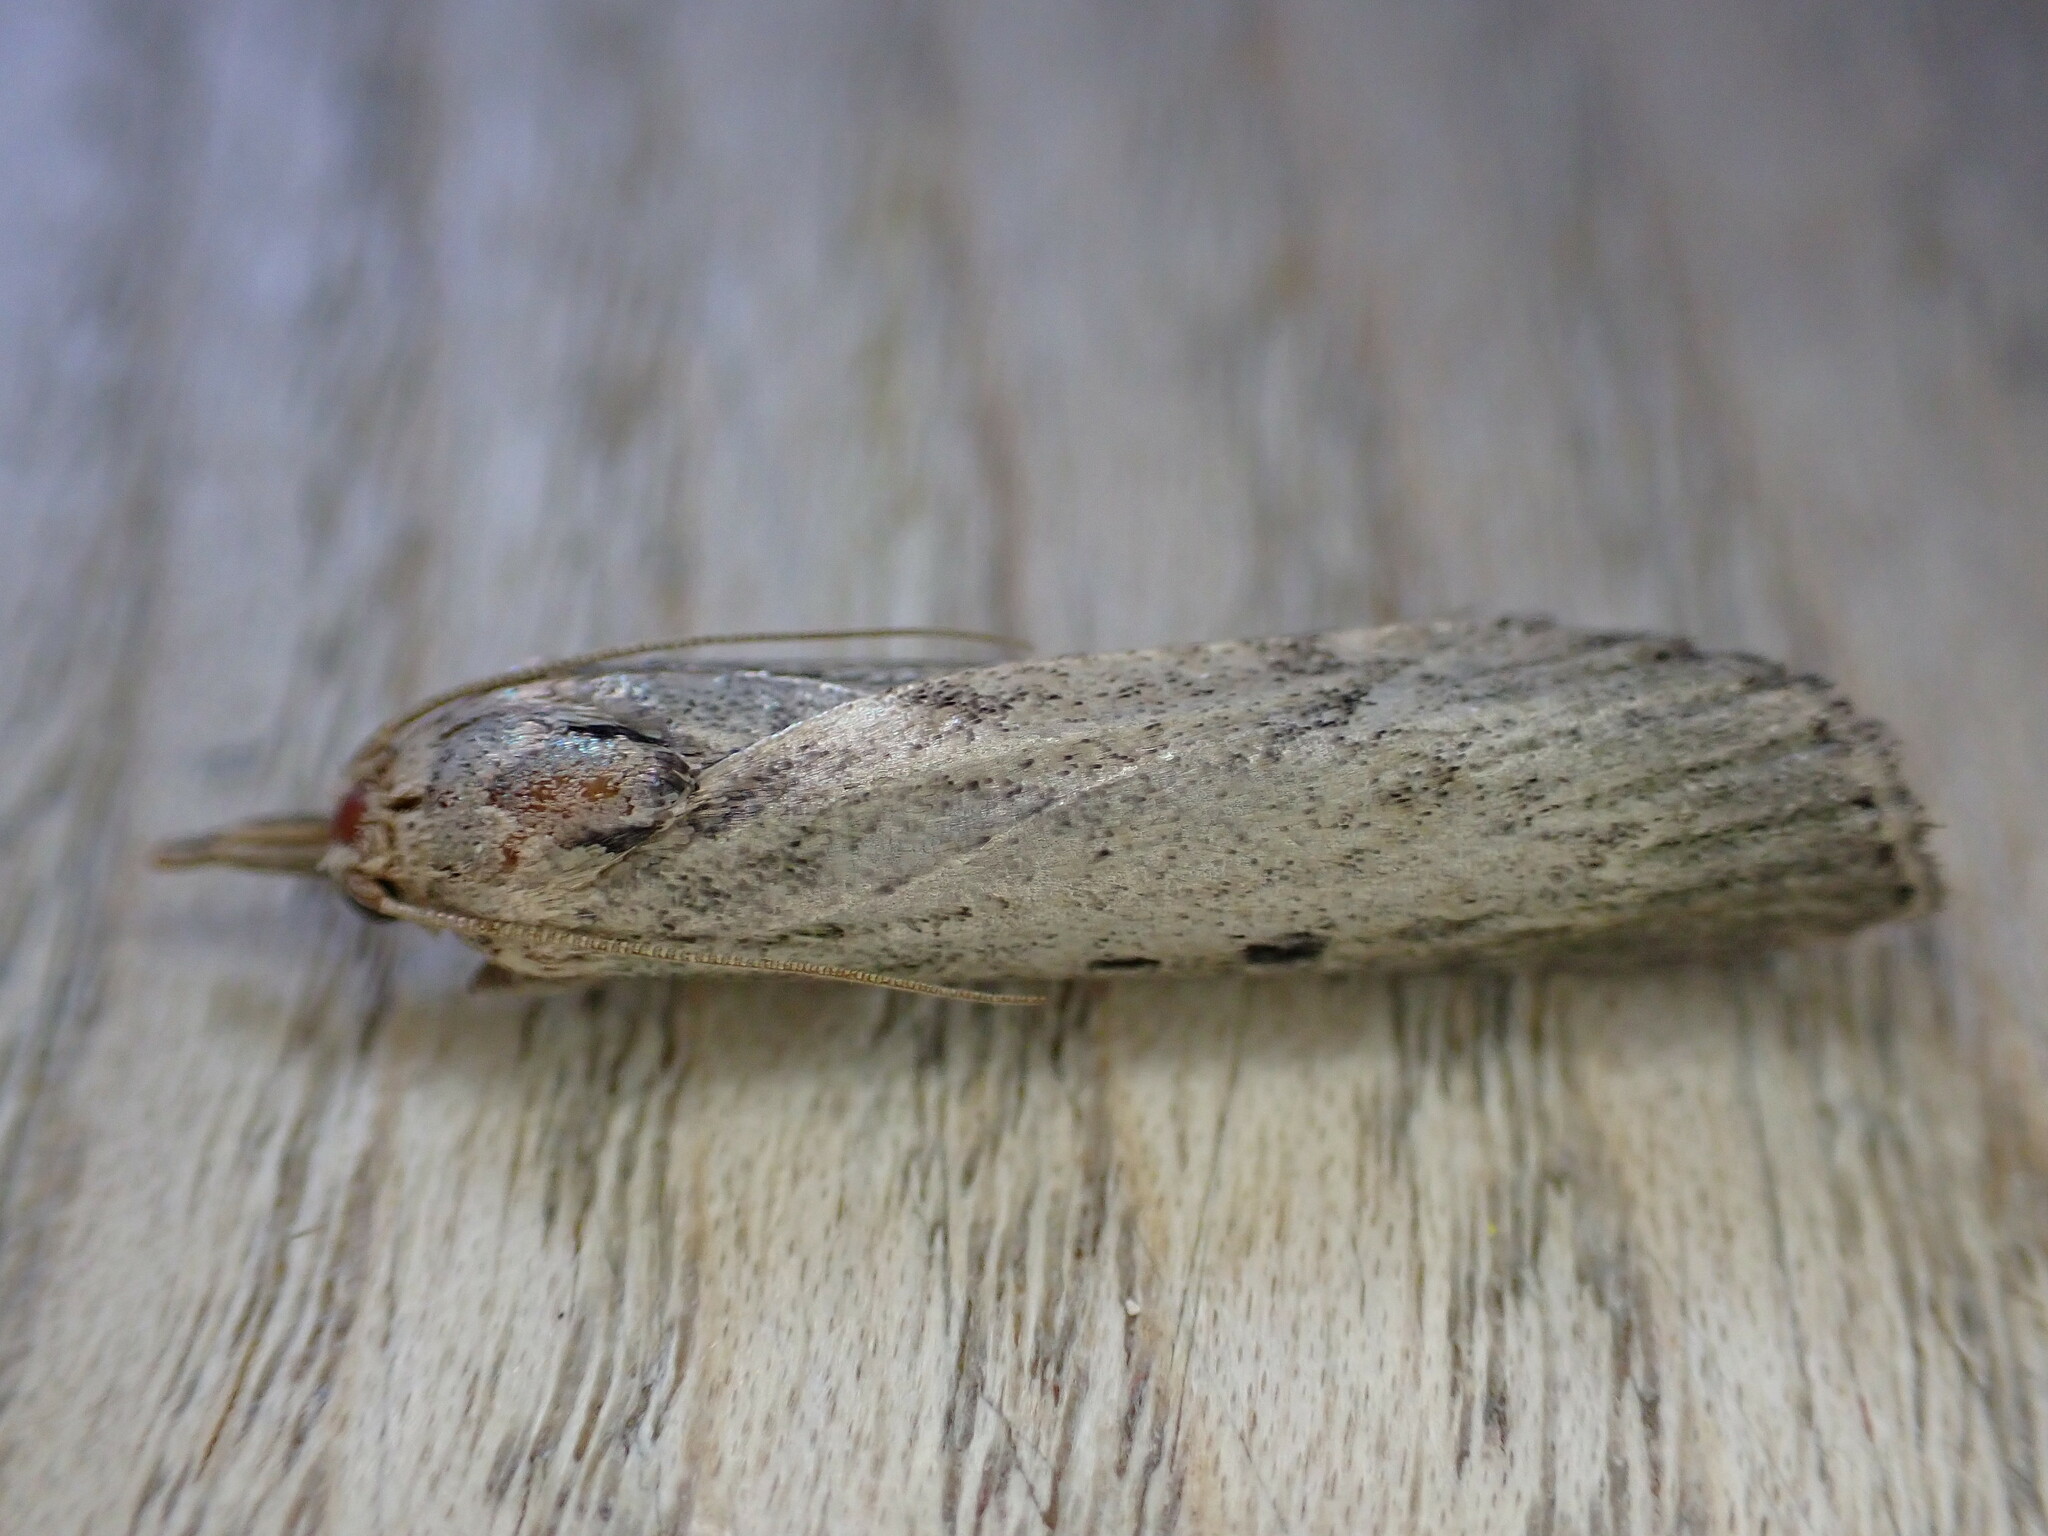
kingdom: Animalia
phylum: Arthropoda
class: Insecta
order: Lepidoptera
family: Pyralidae
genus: Aphomia
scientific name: Aphomia sociella
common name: Bee moth
